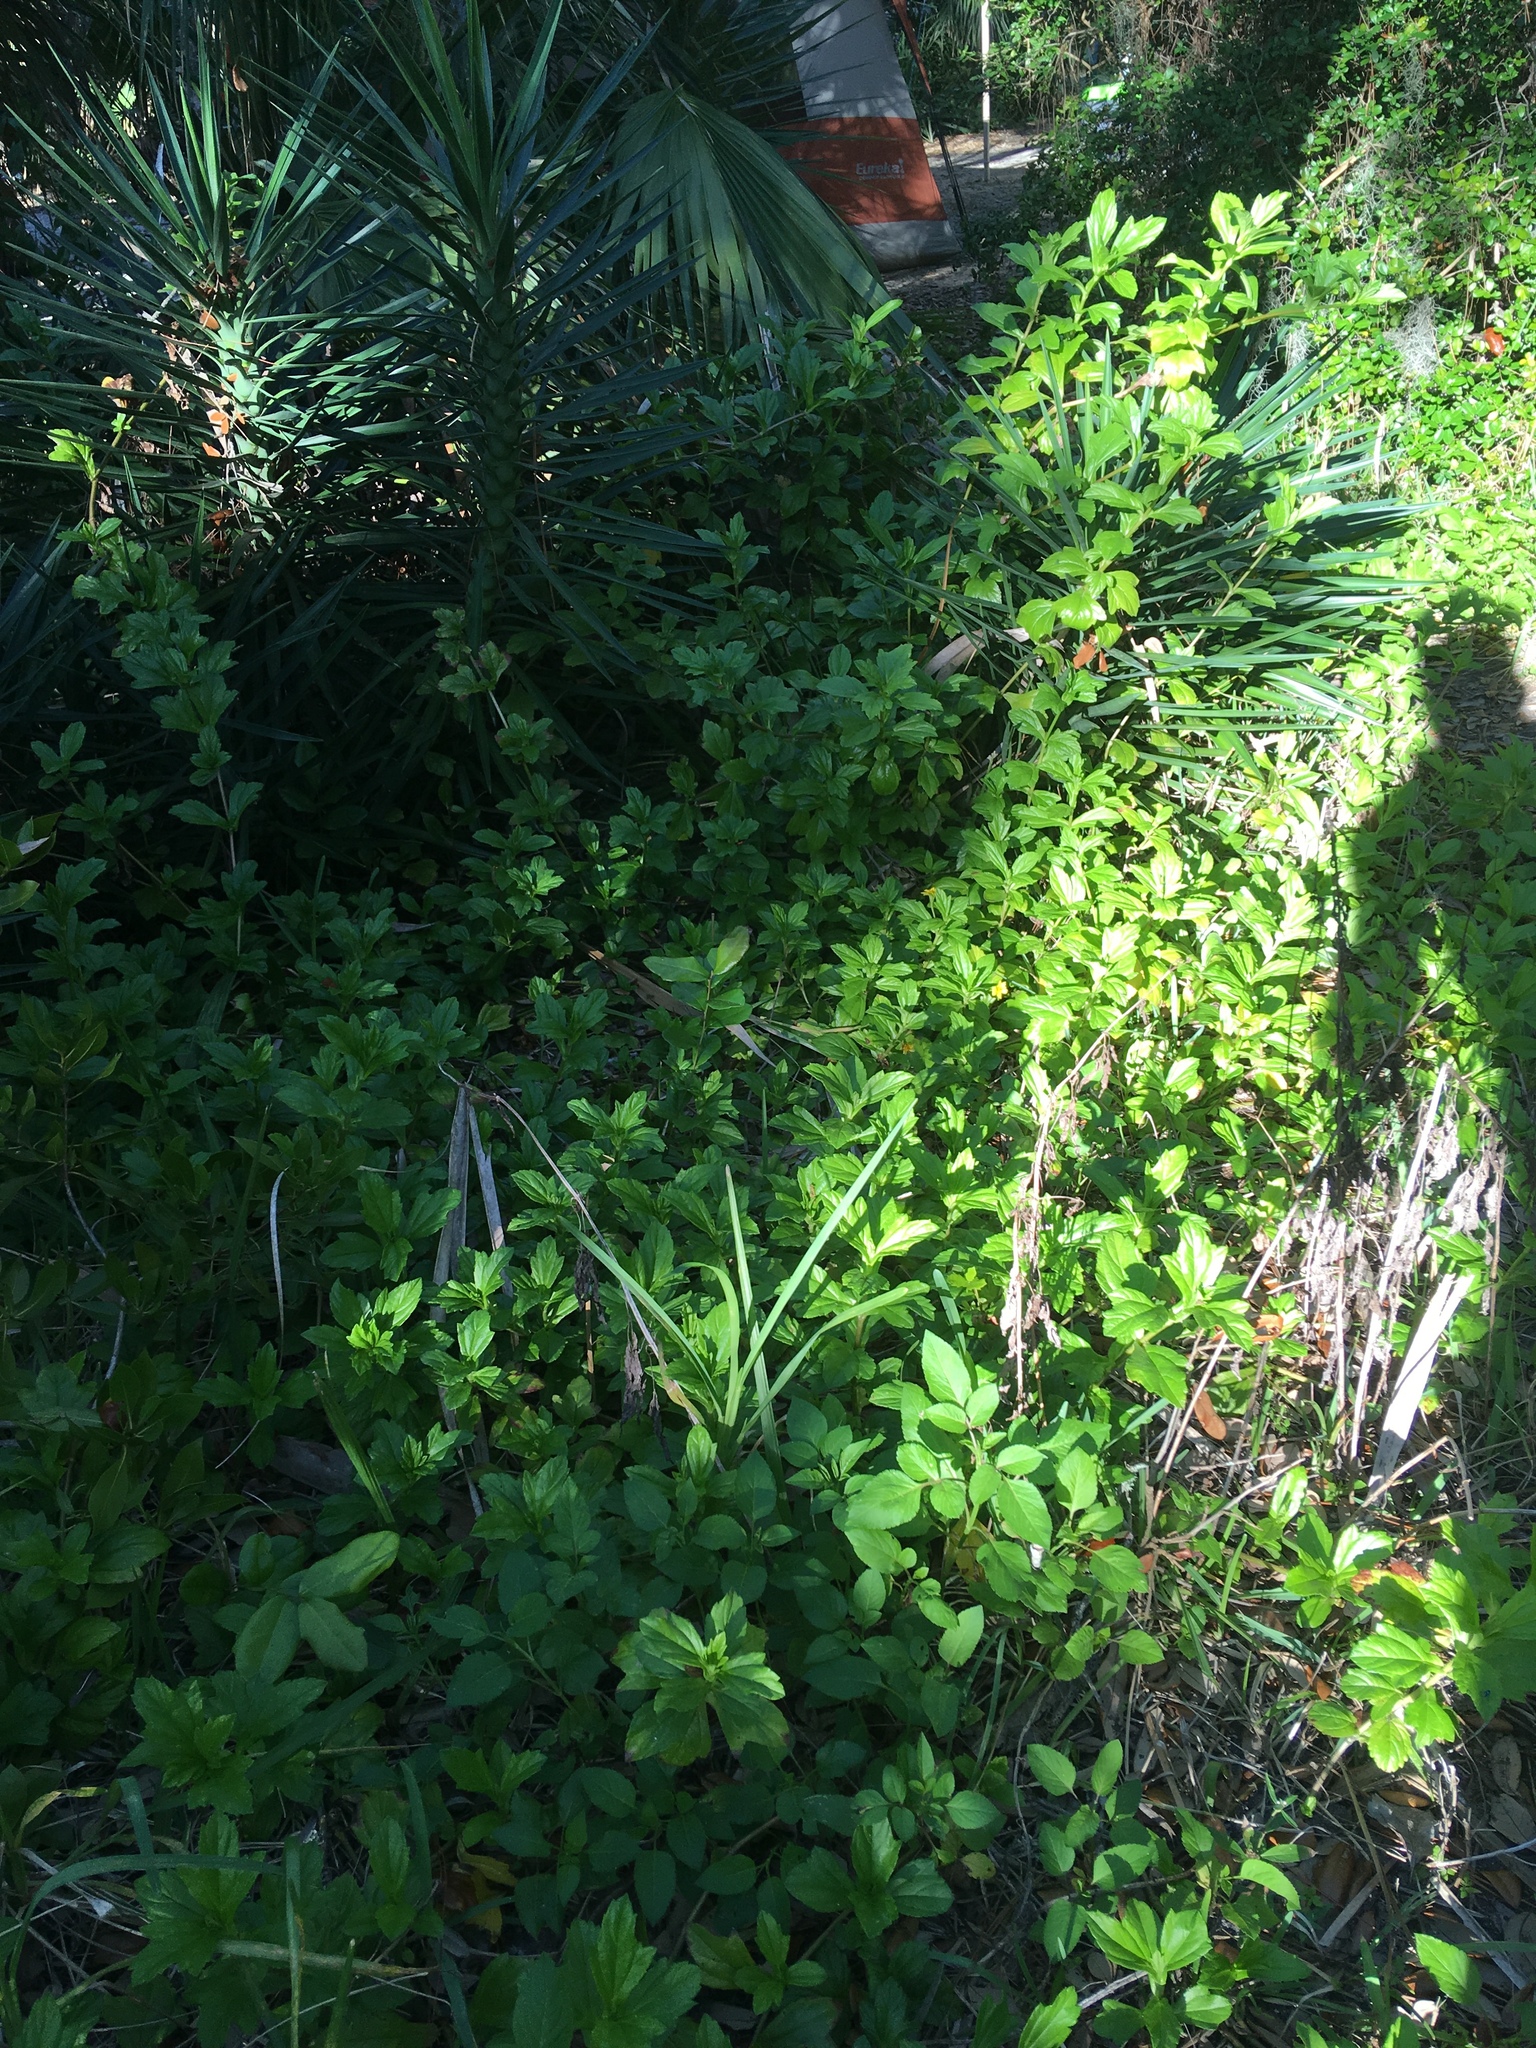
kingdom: Plantae
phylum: Tracheophyta
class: Magnoliopsida
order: Asterales
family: Asteraceae
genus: Sphagneticola
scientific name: Sphagneticola trilobata
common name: Bay biscayne creeping-oxeye
